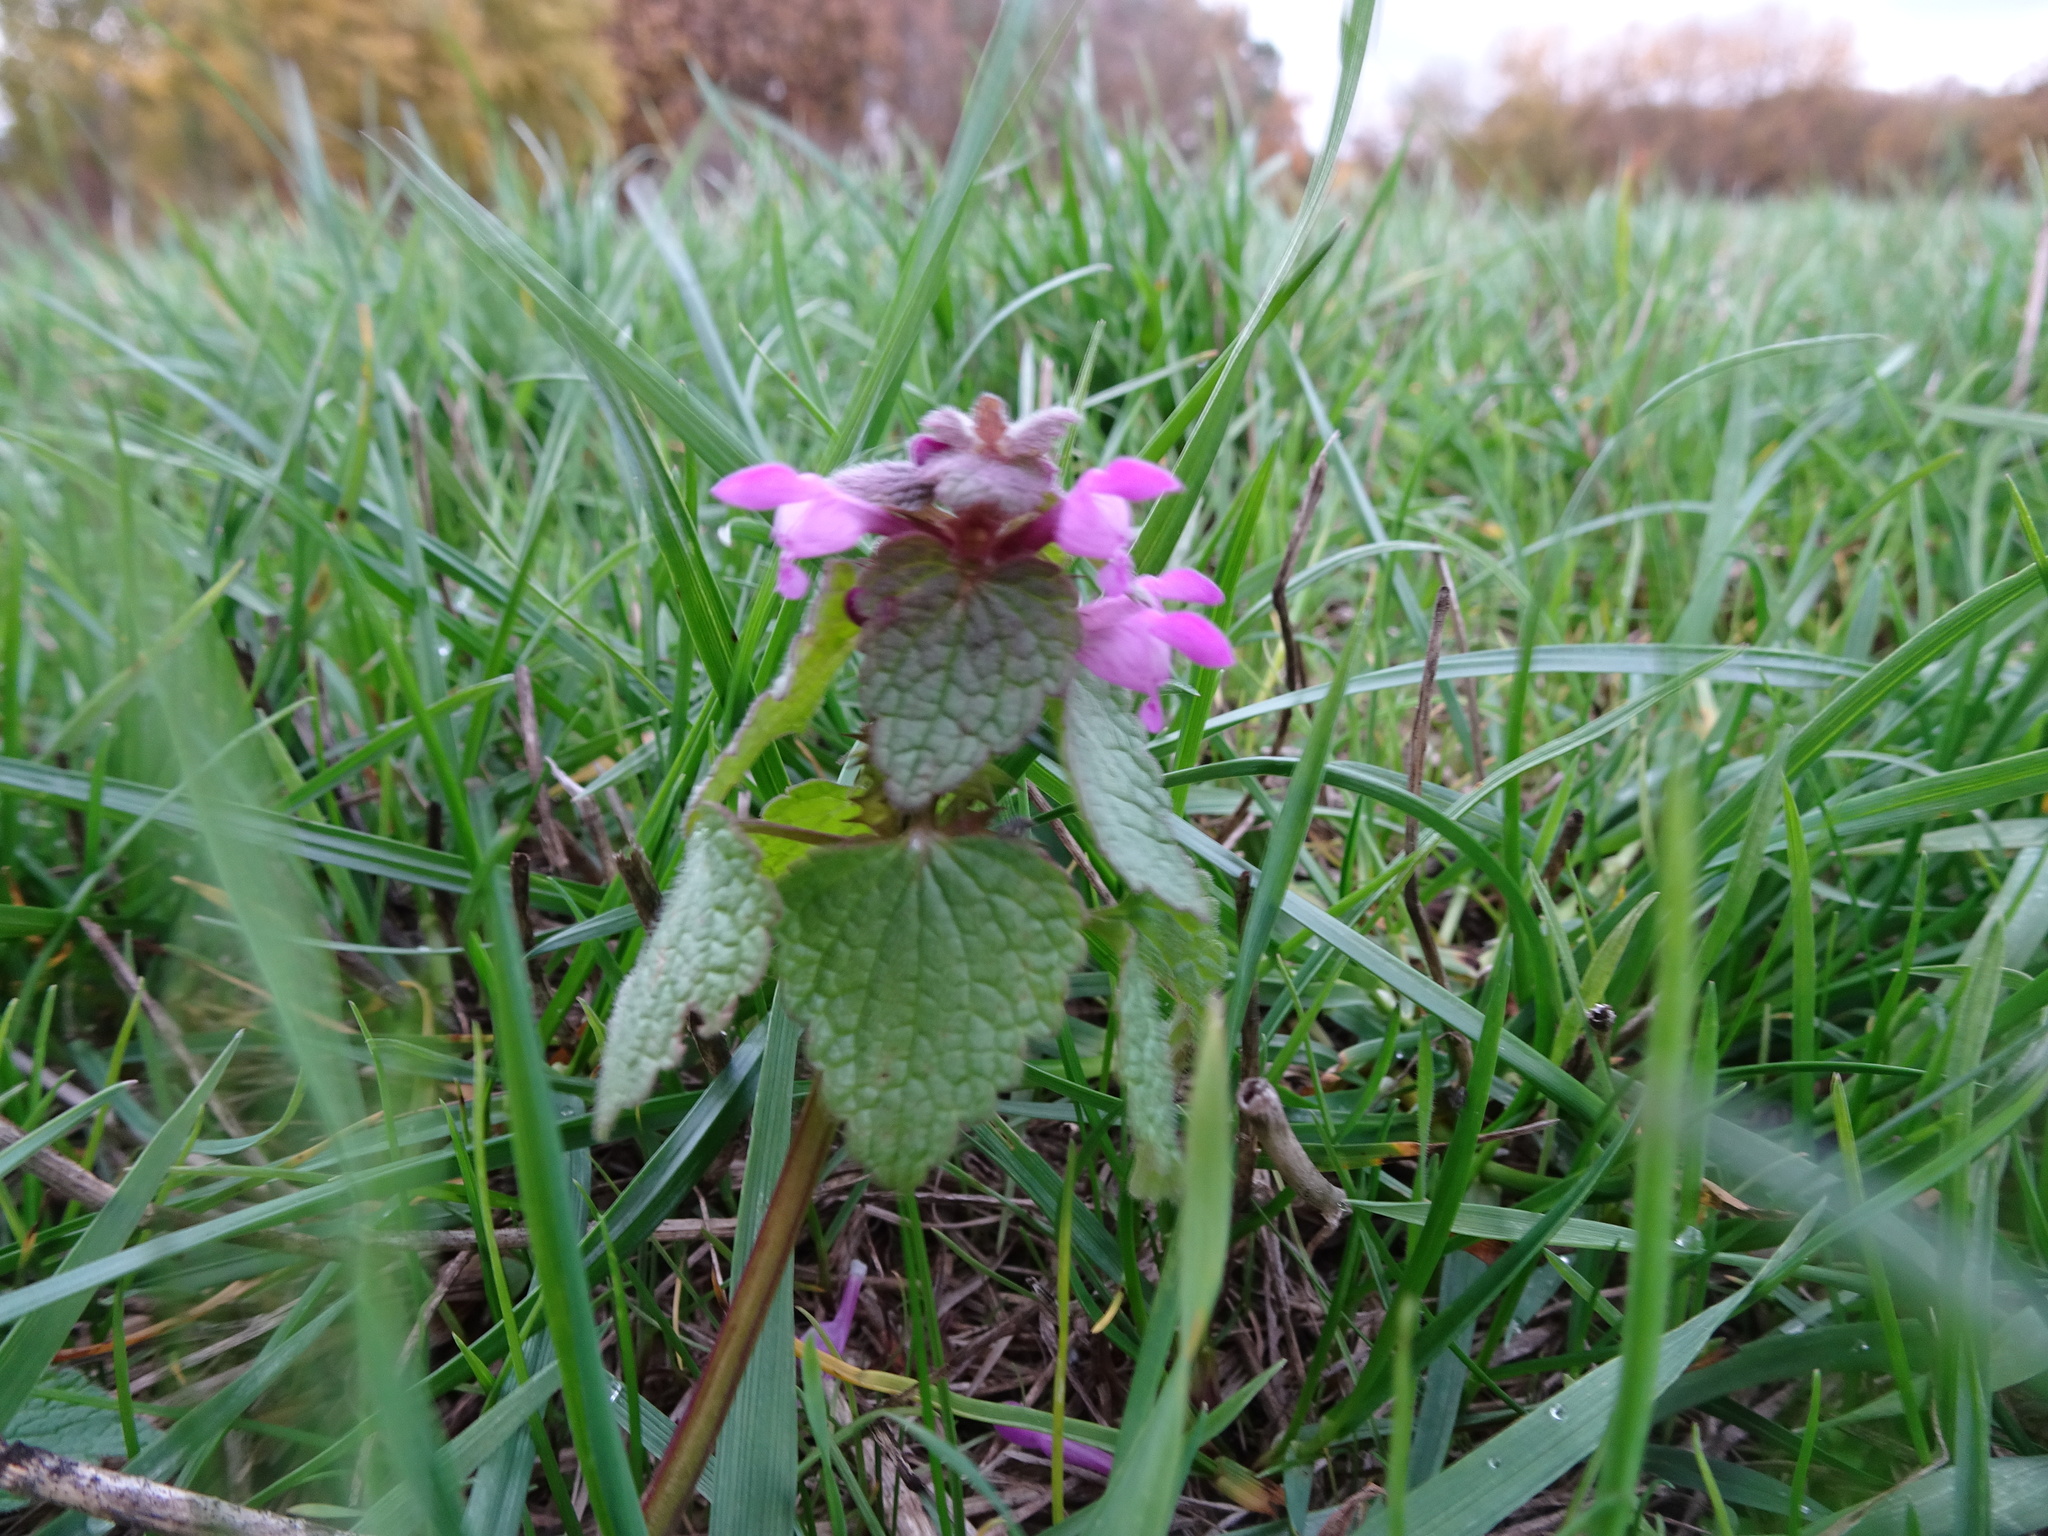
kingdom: Plantae
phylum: Tracheophyta
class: Magnoliopsida
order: Lamiales
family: Lamiaceae
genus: Lamium
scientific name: Lamium purpureum
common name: Red dead-nettle
